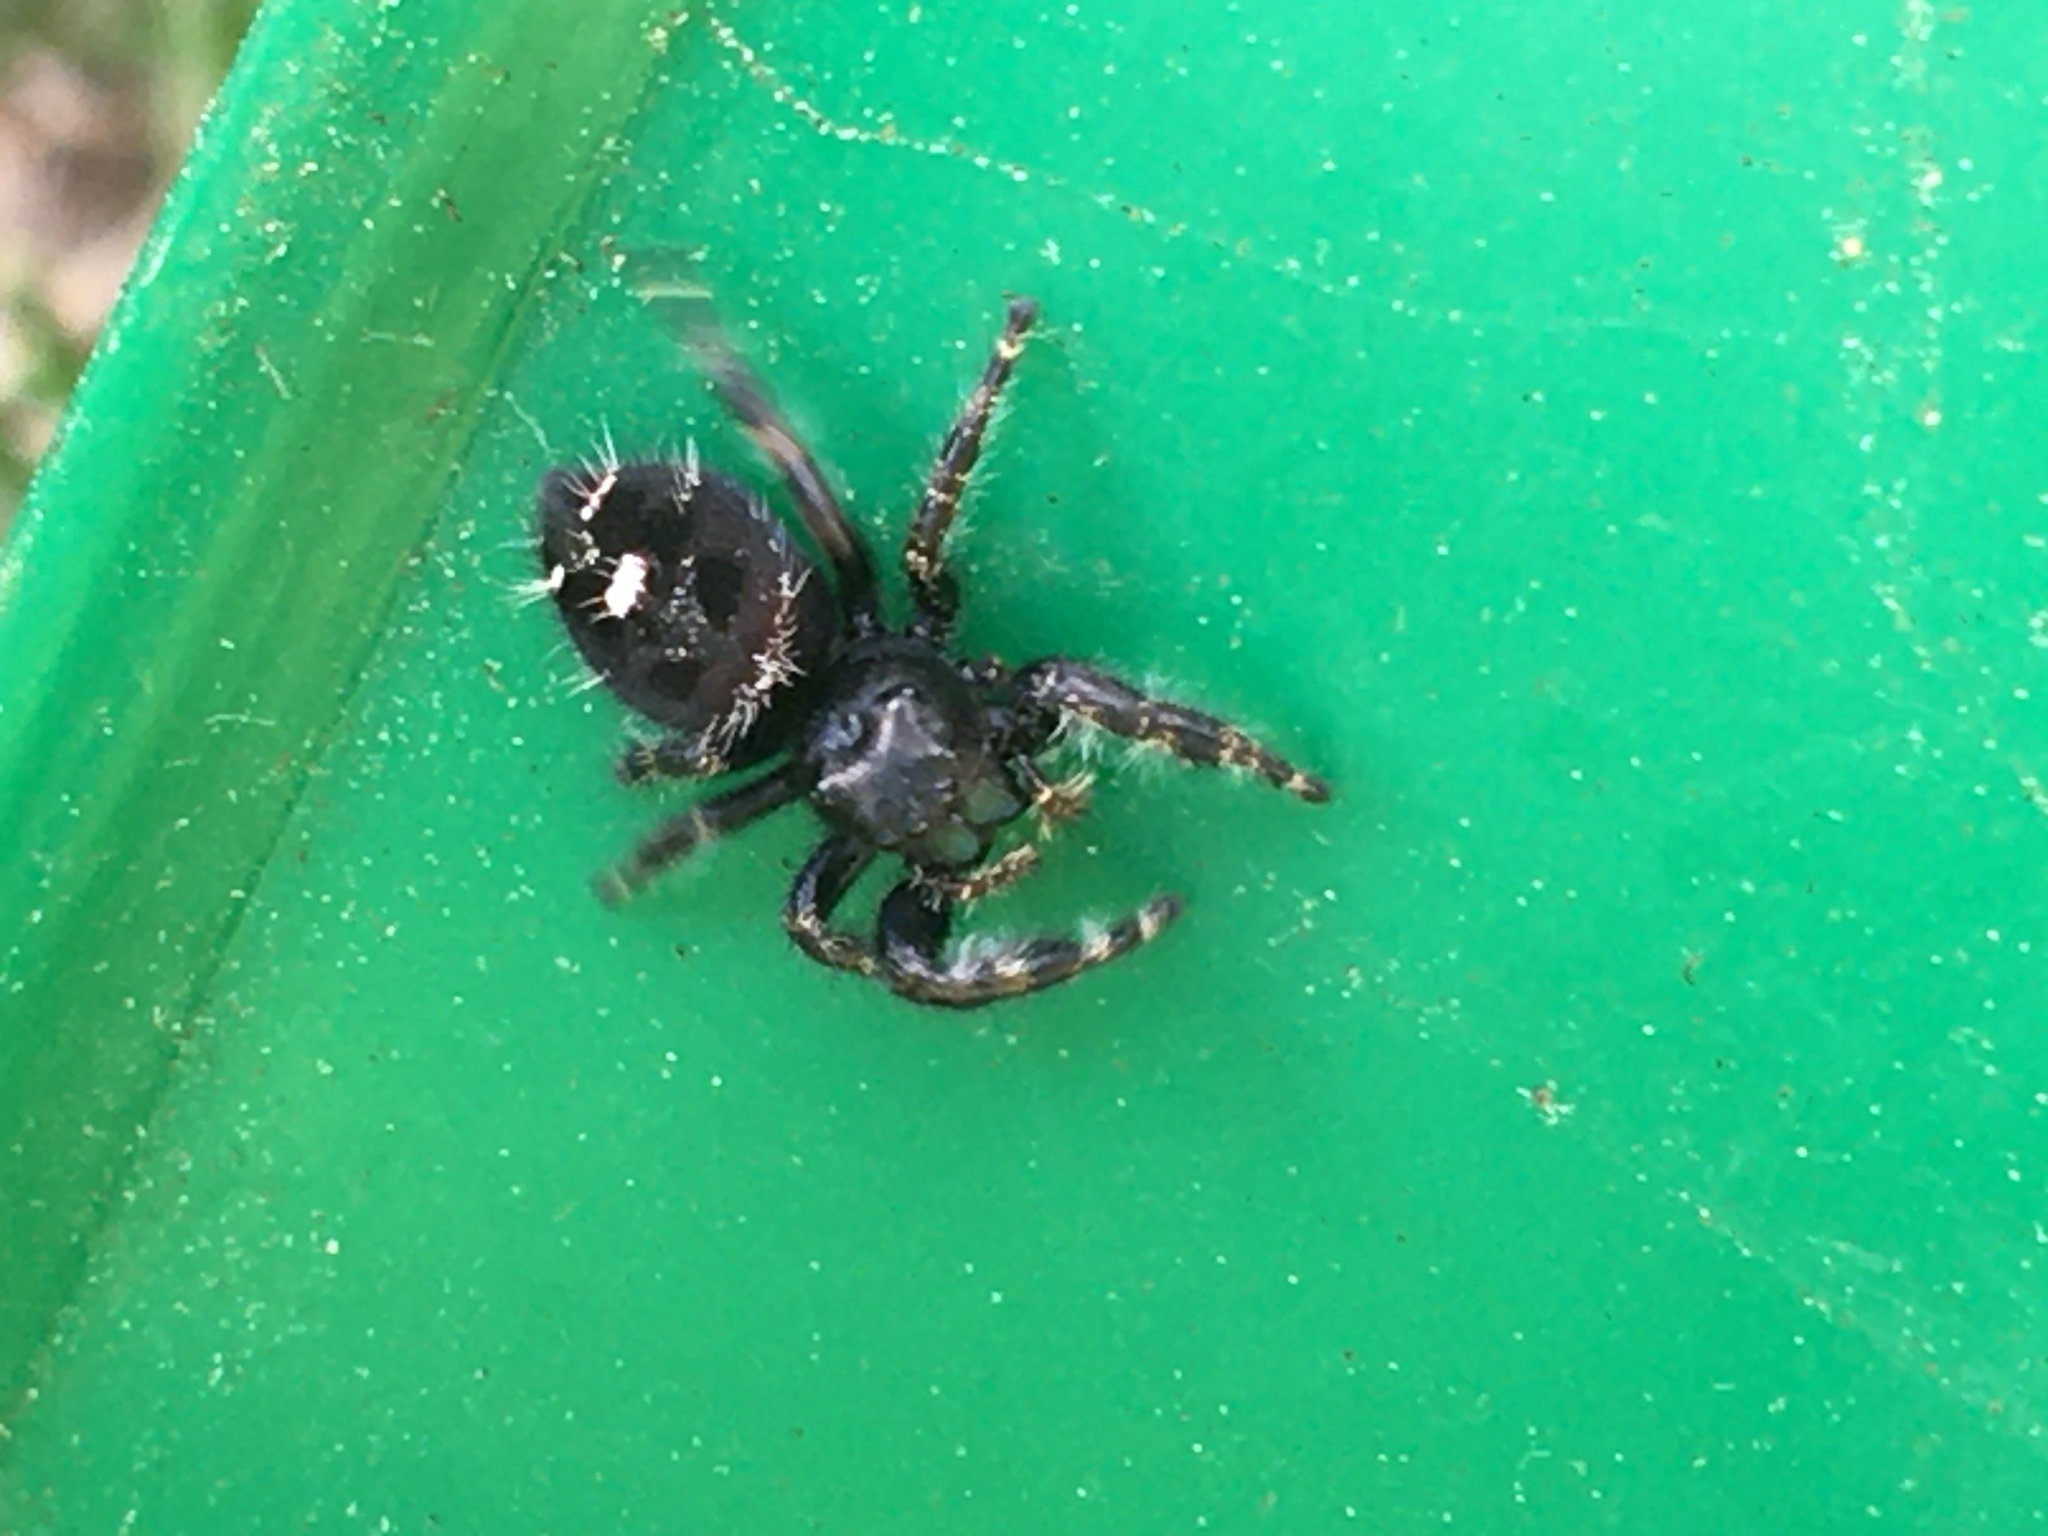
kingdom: Animalia
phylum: Arthropoda
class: Arachnida
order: Araneae
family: Salticidae
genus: Phidippus
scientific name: Phidippus audax
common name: Bold jumper
